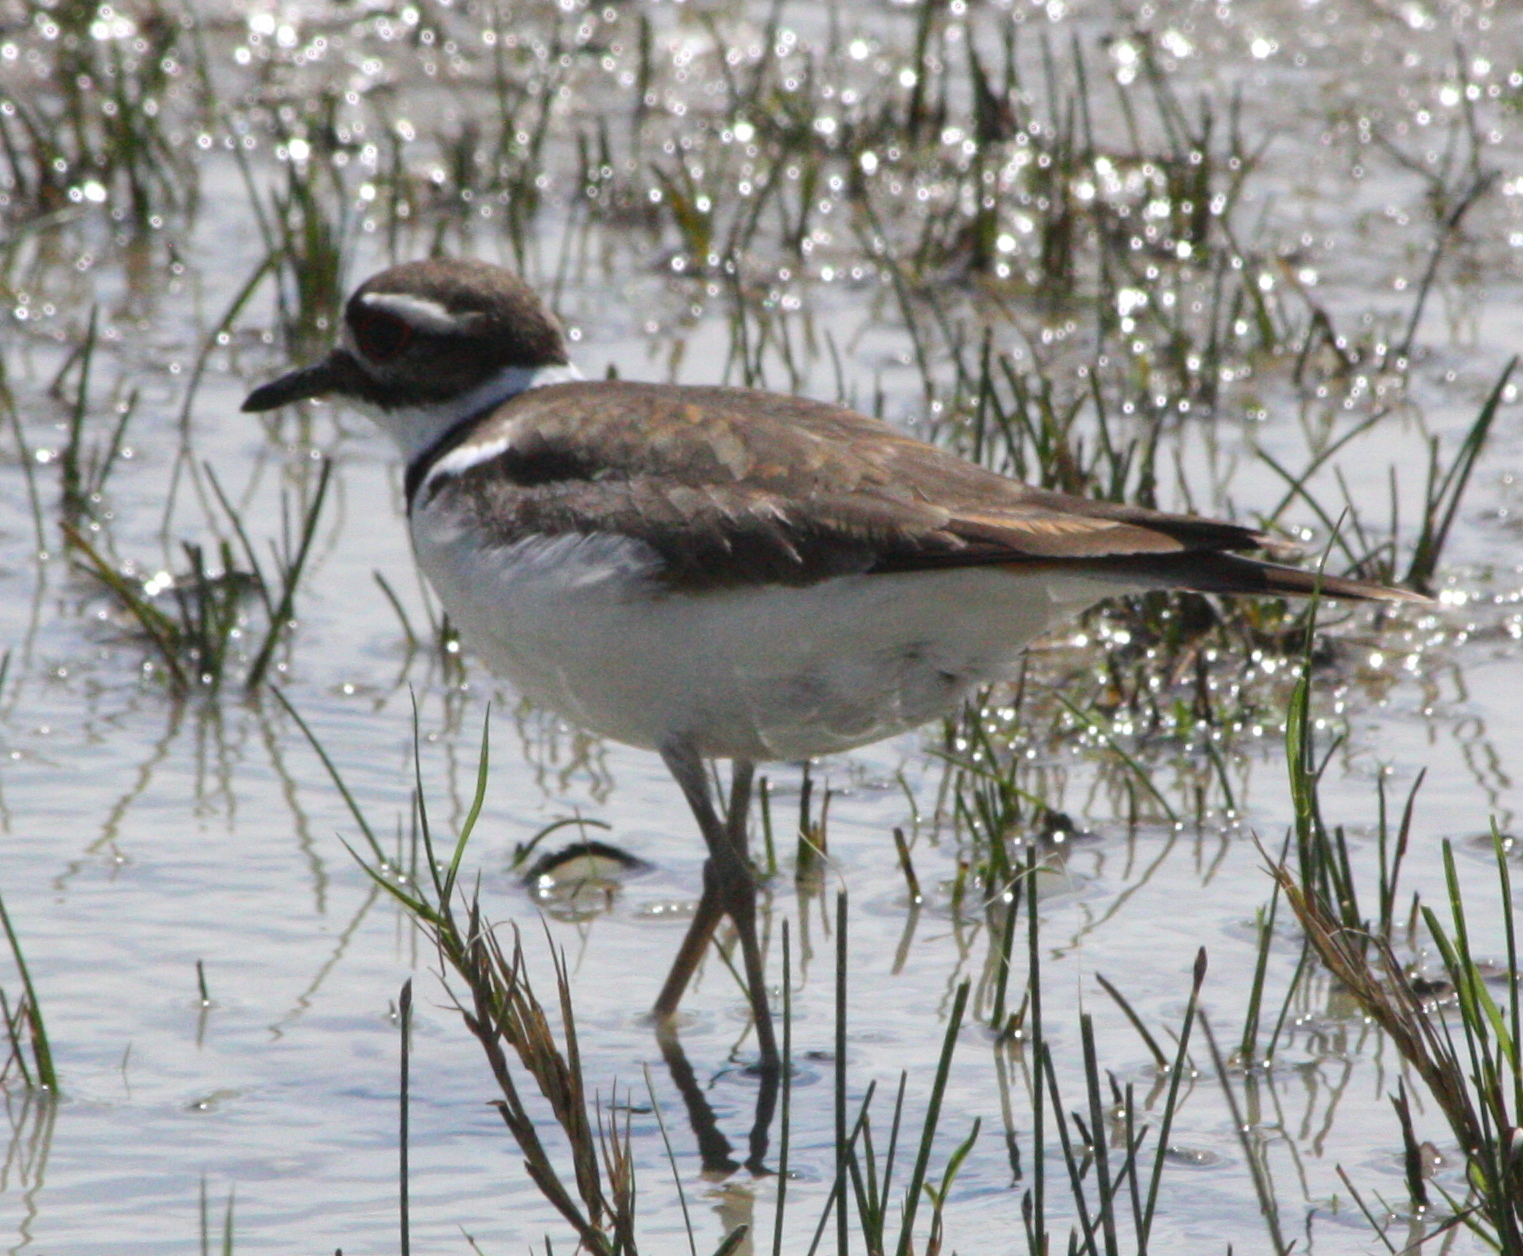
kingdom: Animalia
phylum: Chordata
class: Aves
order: Charadriiformes
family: Charadriidae
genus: Charadrius
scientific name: Charadrius vociferus
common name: Killdeer
